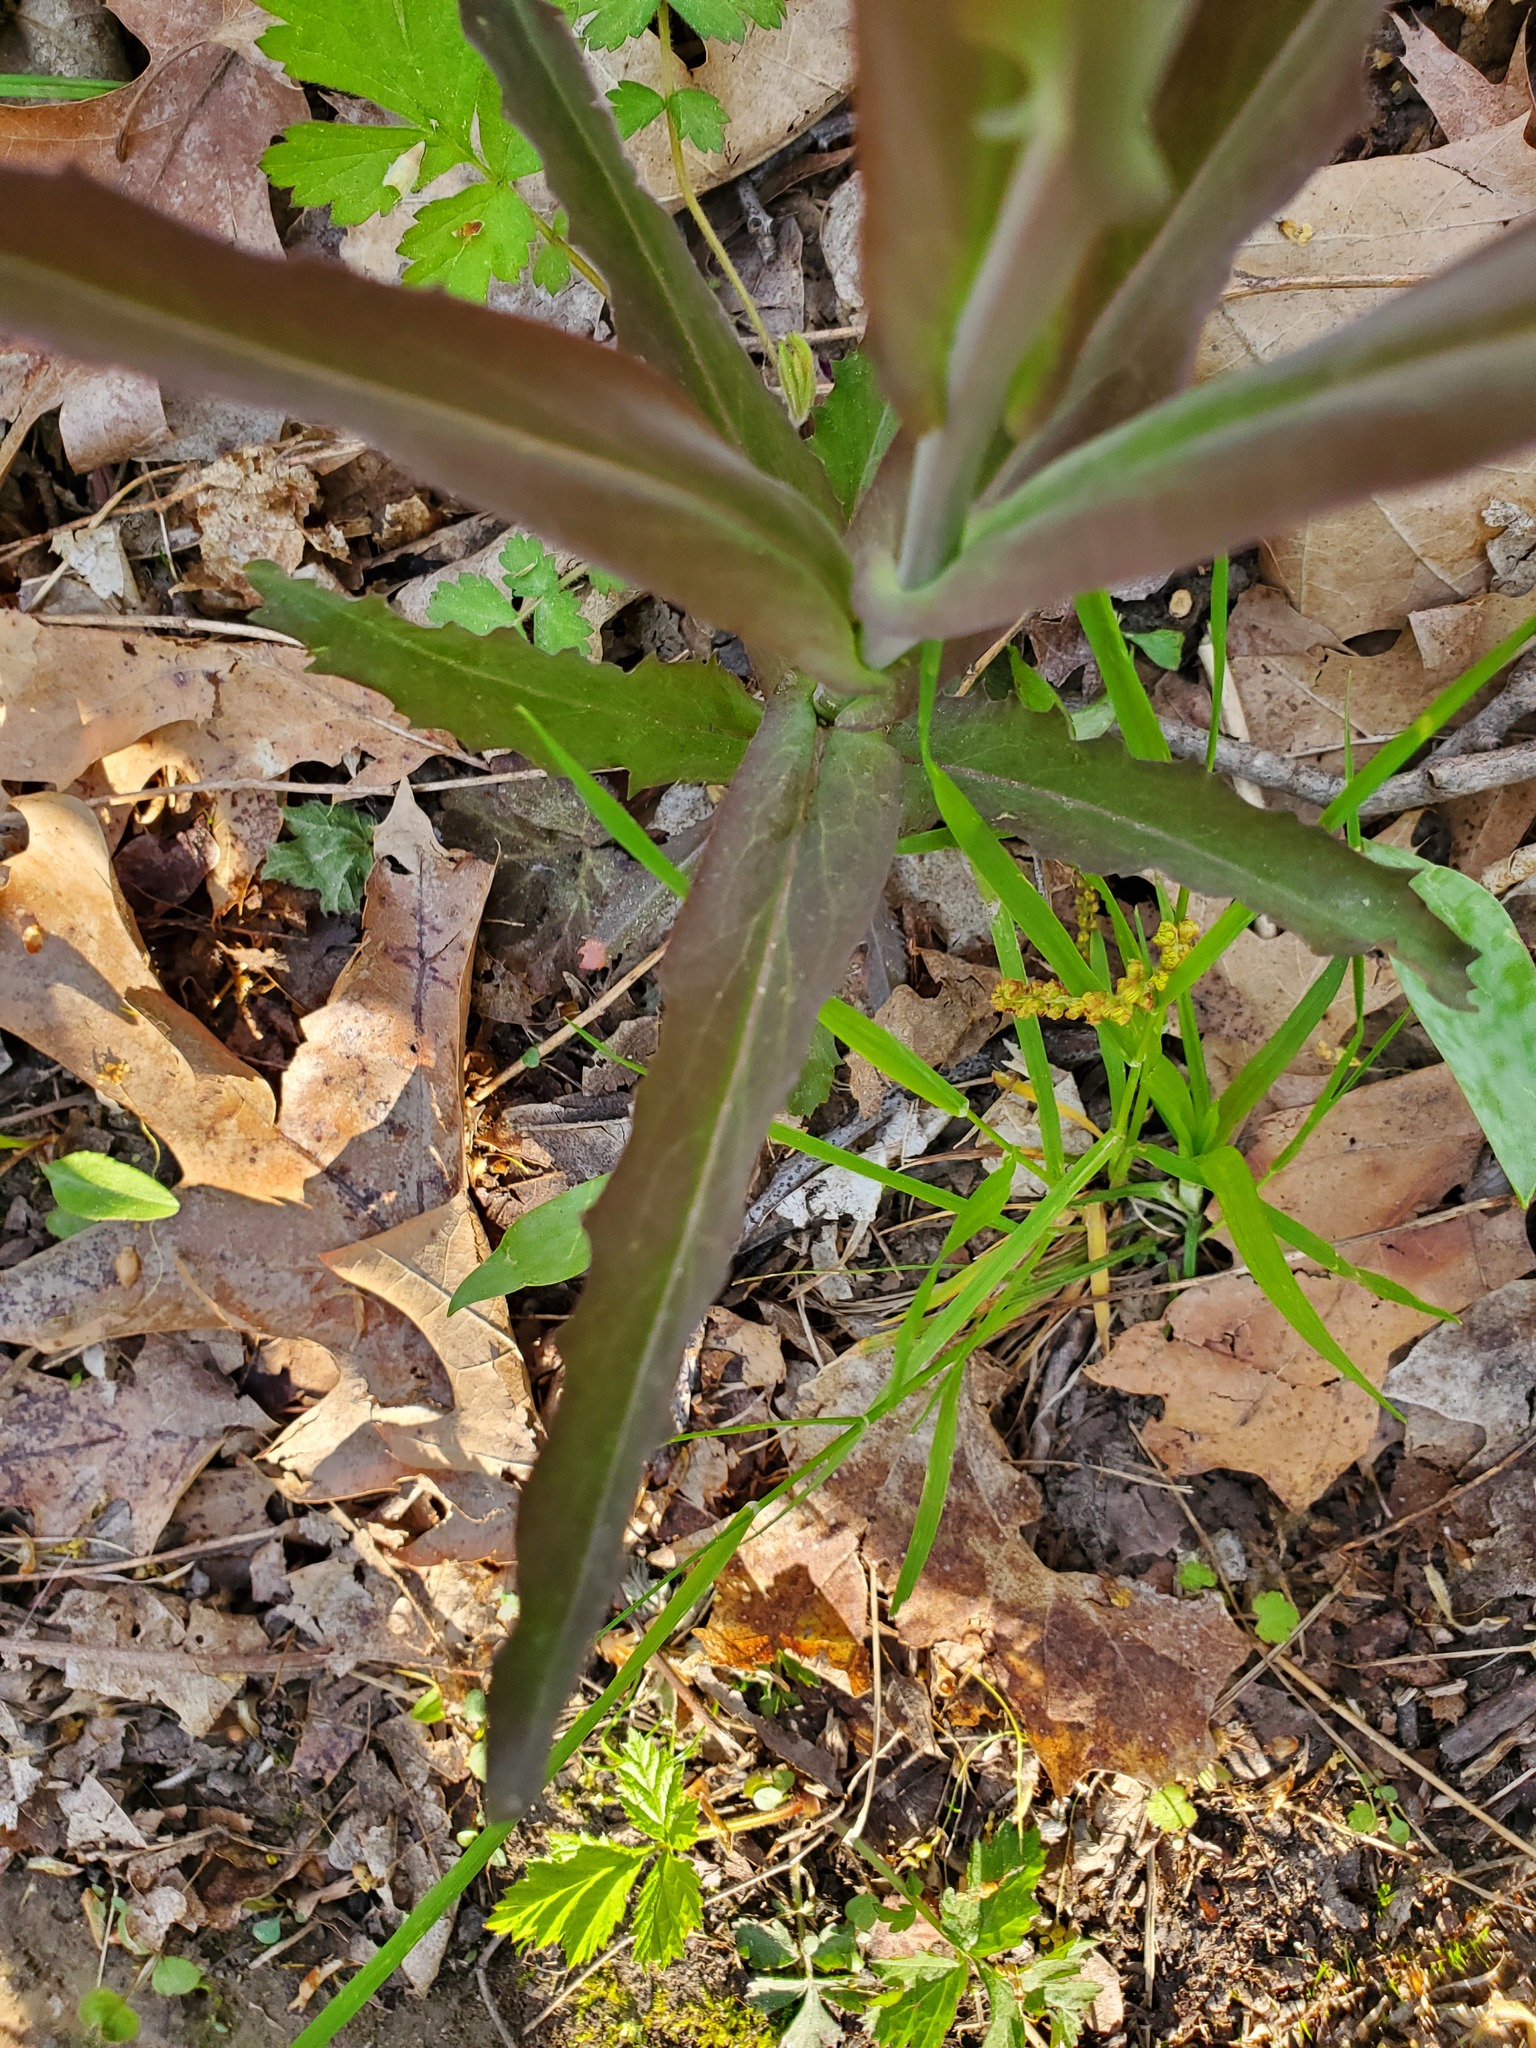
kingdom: Plantae
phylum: Tracheophyta
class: Magnoliopsida
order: Brassicales
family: Brassicaceae
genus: Borodinia
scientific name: Borodinia laevigata
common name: Smooth rockcress
